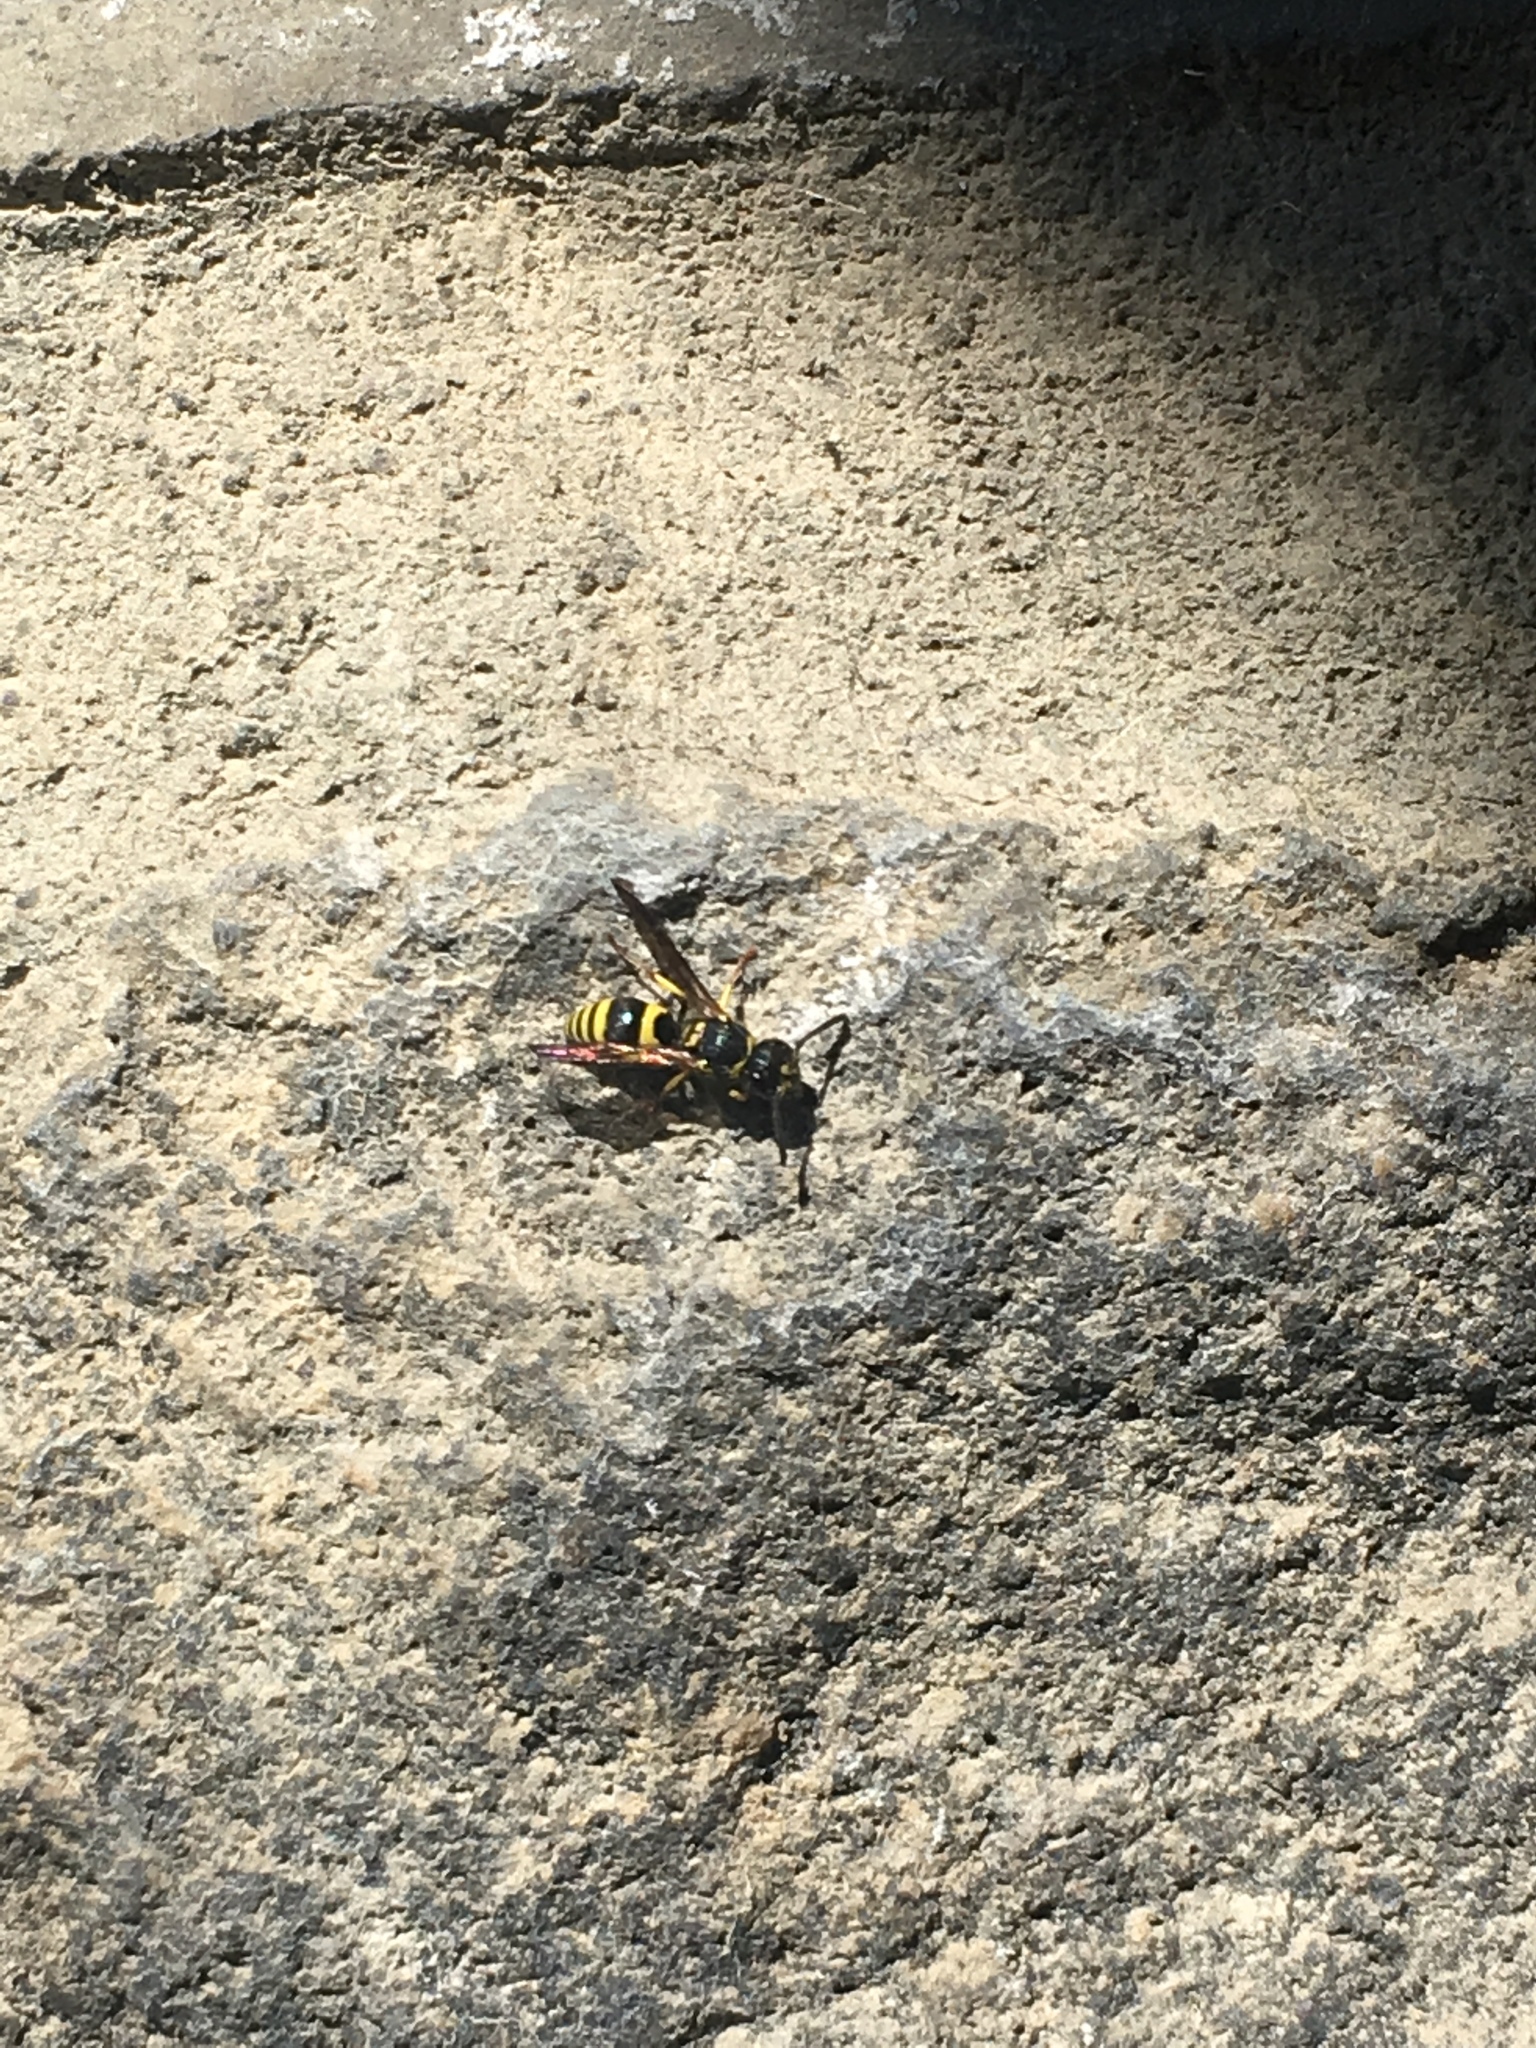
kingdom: Animalia
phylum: Arthropoda
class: Insecta
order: Hymenoptera
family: Vespidae
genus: Ancistrocerus
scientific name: Ancistrocerus gazella
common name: European tube wasp
